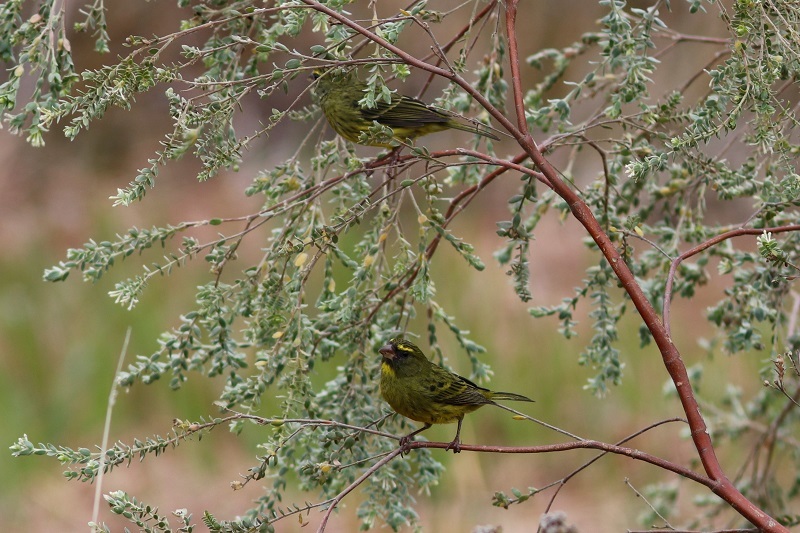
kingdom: Animalia
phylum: Chordata
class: Aves
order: Passeriformes
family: Fringillidae
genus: Crithagra
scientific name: Crithagra scotops
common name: Forest canary
